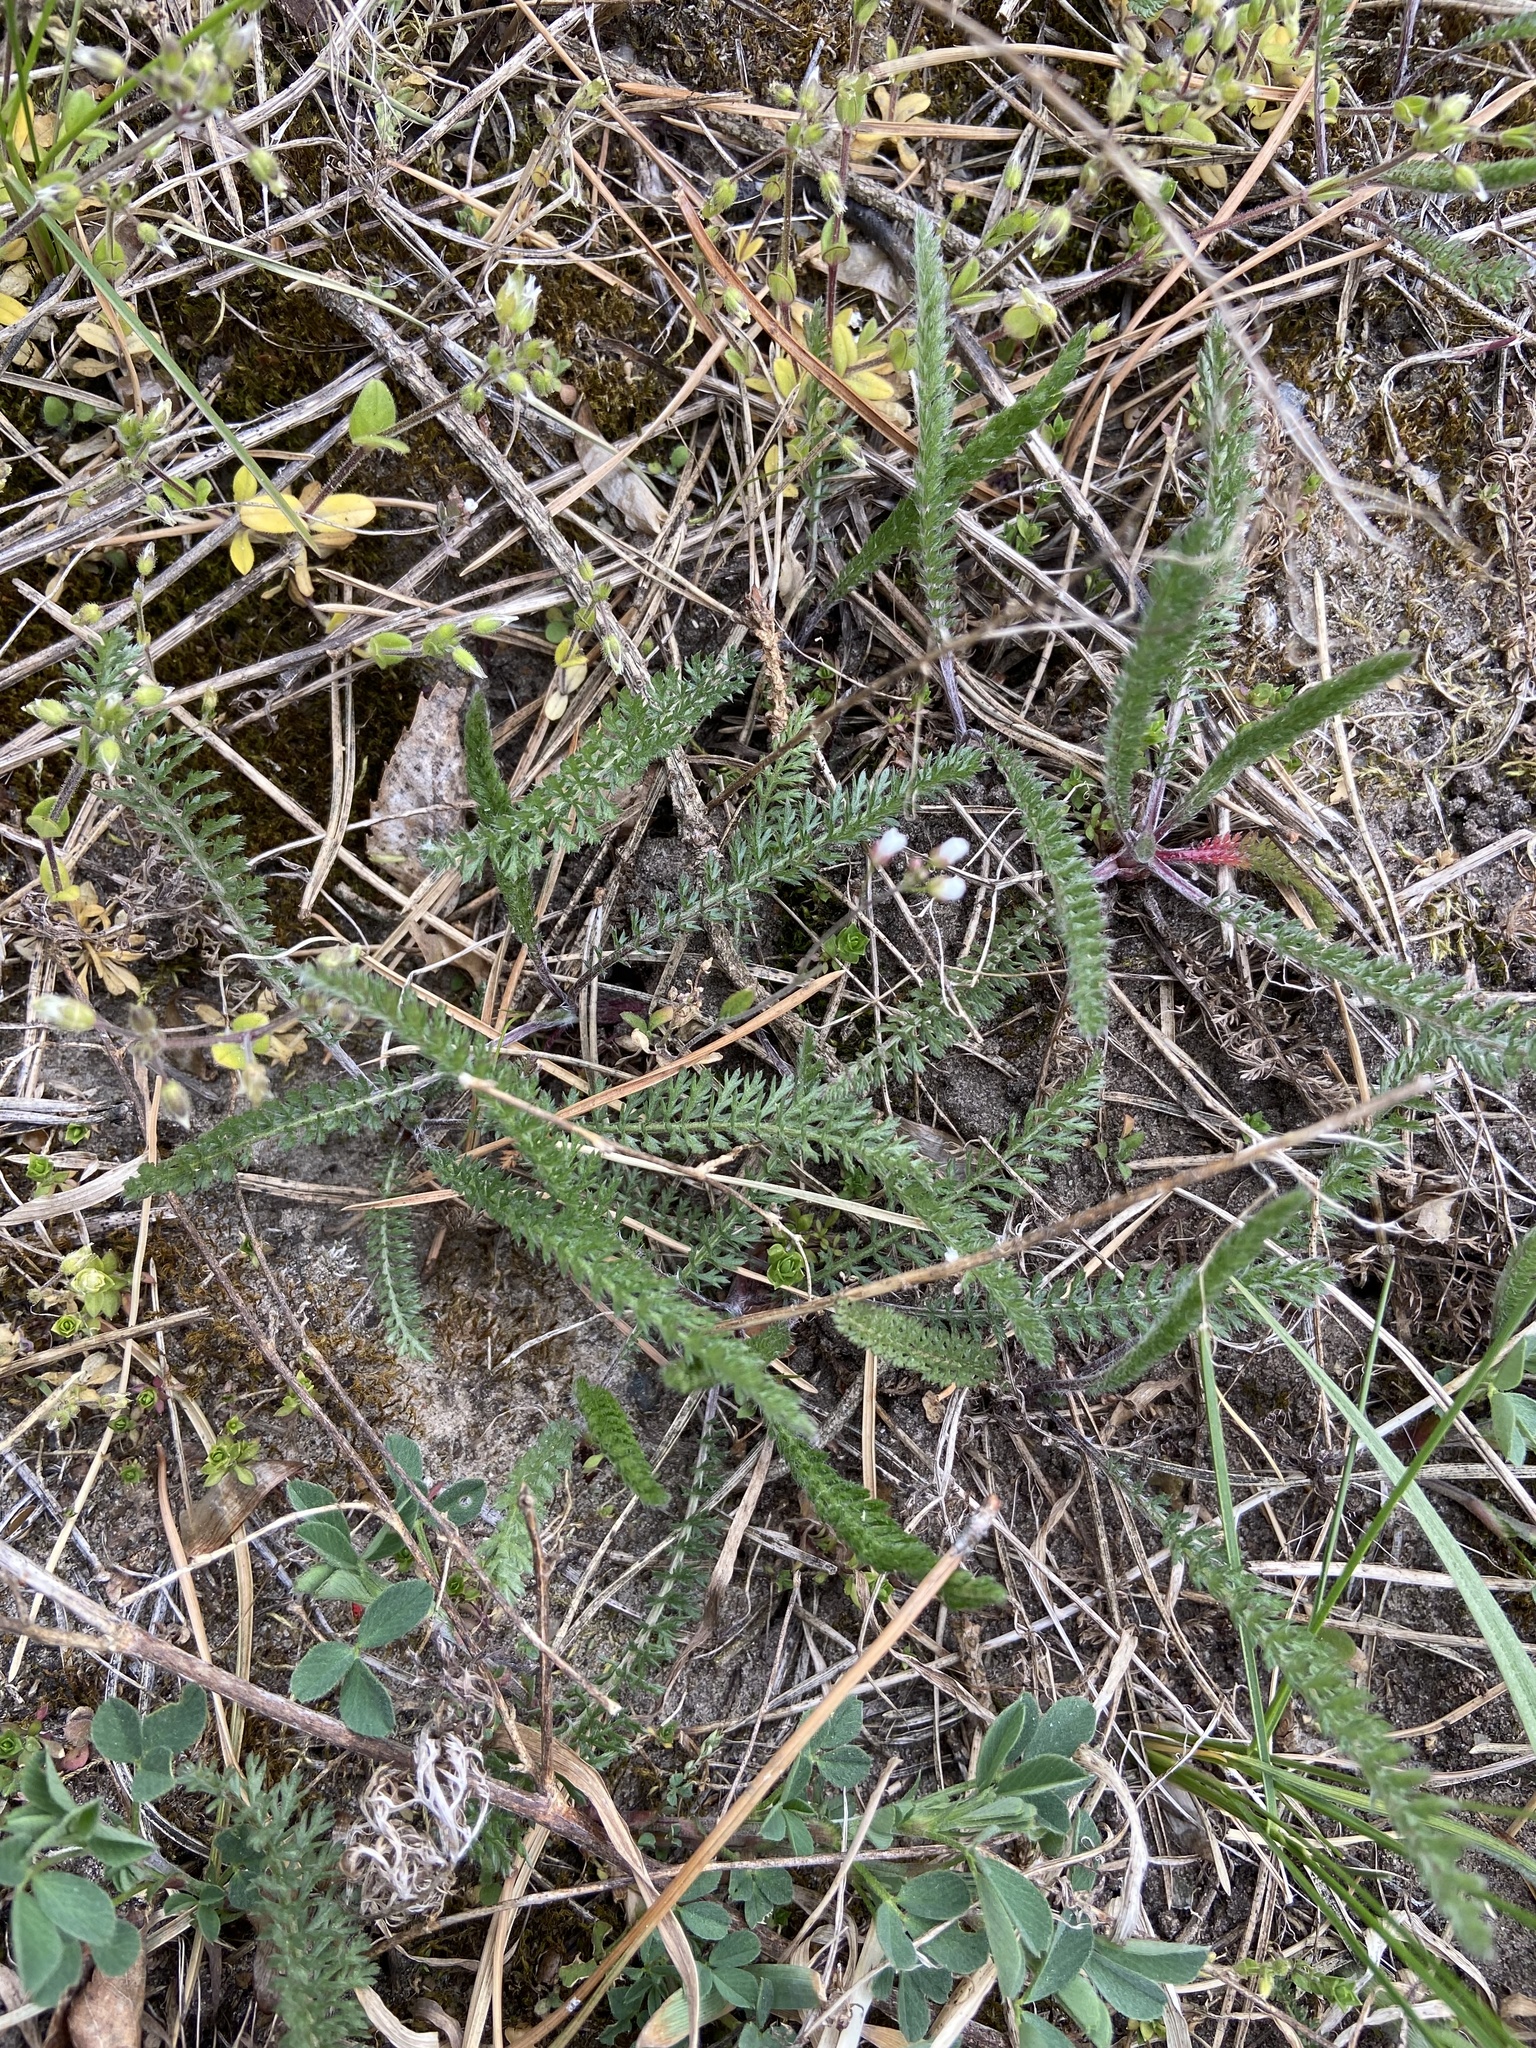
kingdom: Plantae
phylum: Tracheophyta
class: Magnoliopsida
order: Asterales
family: Asteraceae
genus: Achillea
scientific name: Achillea millefolium
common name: Yarrow
